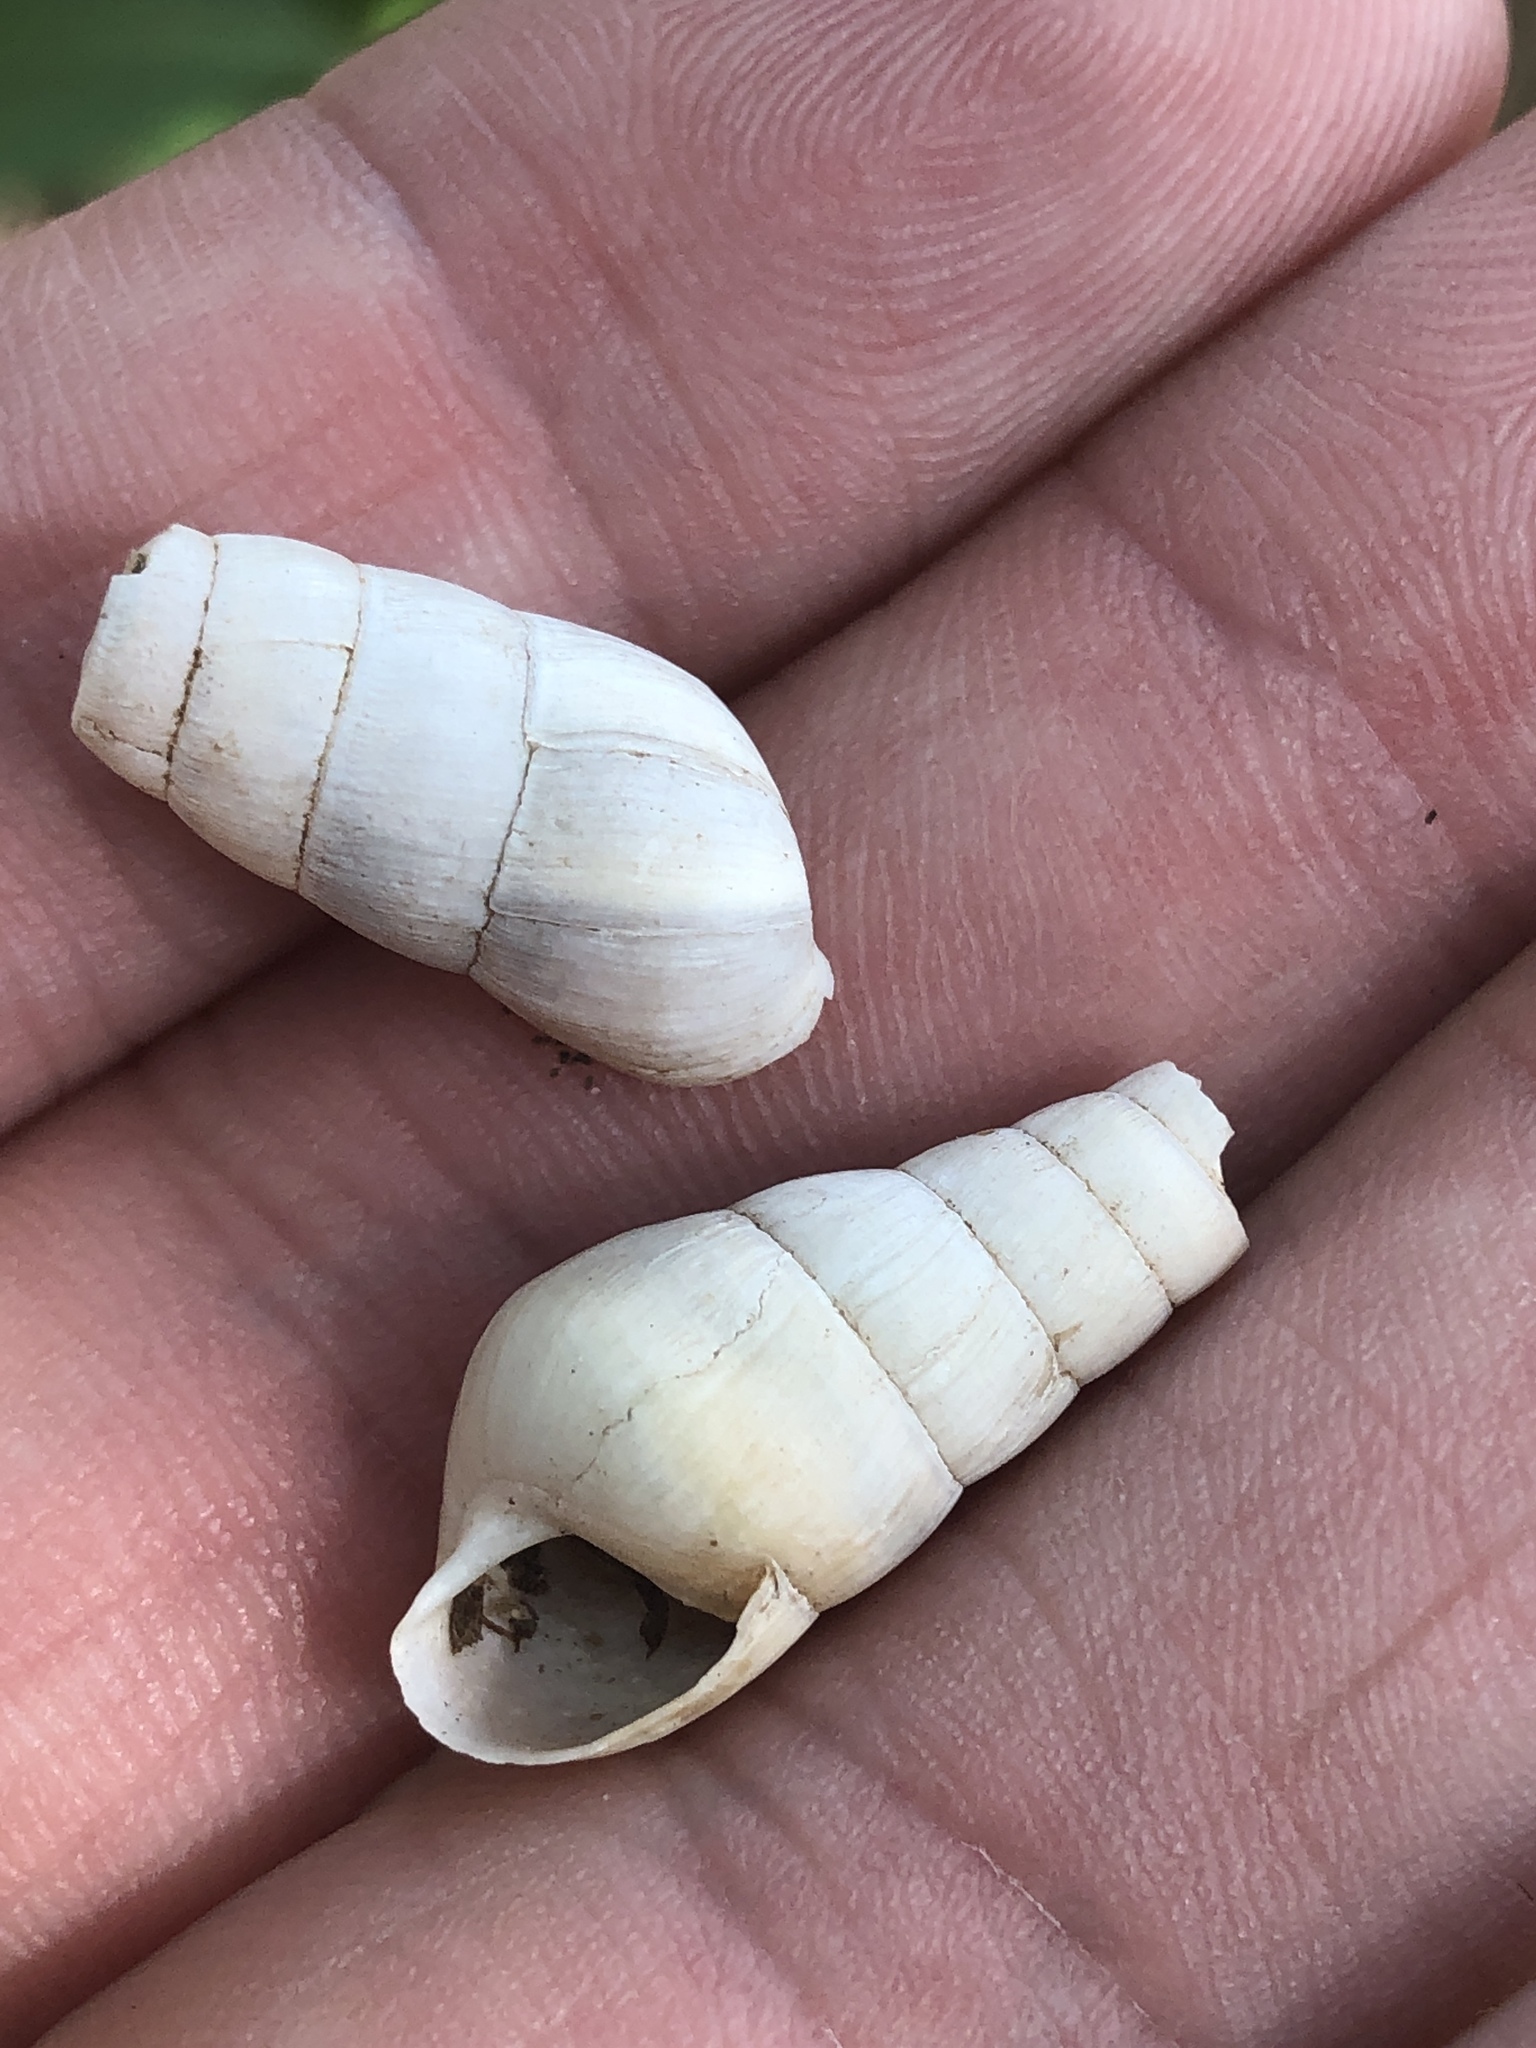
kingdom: Animalia
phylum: Mollusca
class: Gastropoda
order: Stylommatophora
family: Achatinidae
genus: Rumina
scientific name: Rumina decollata
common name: Decollate snail
